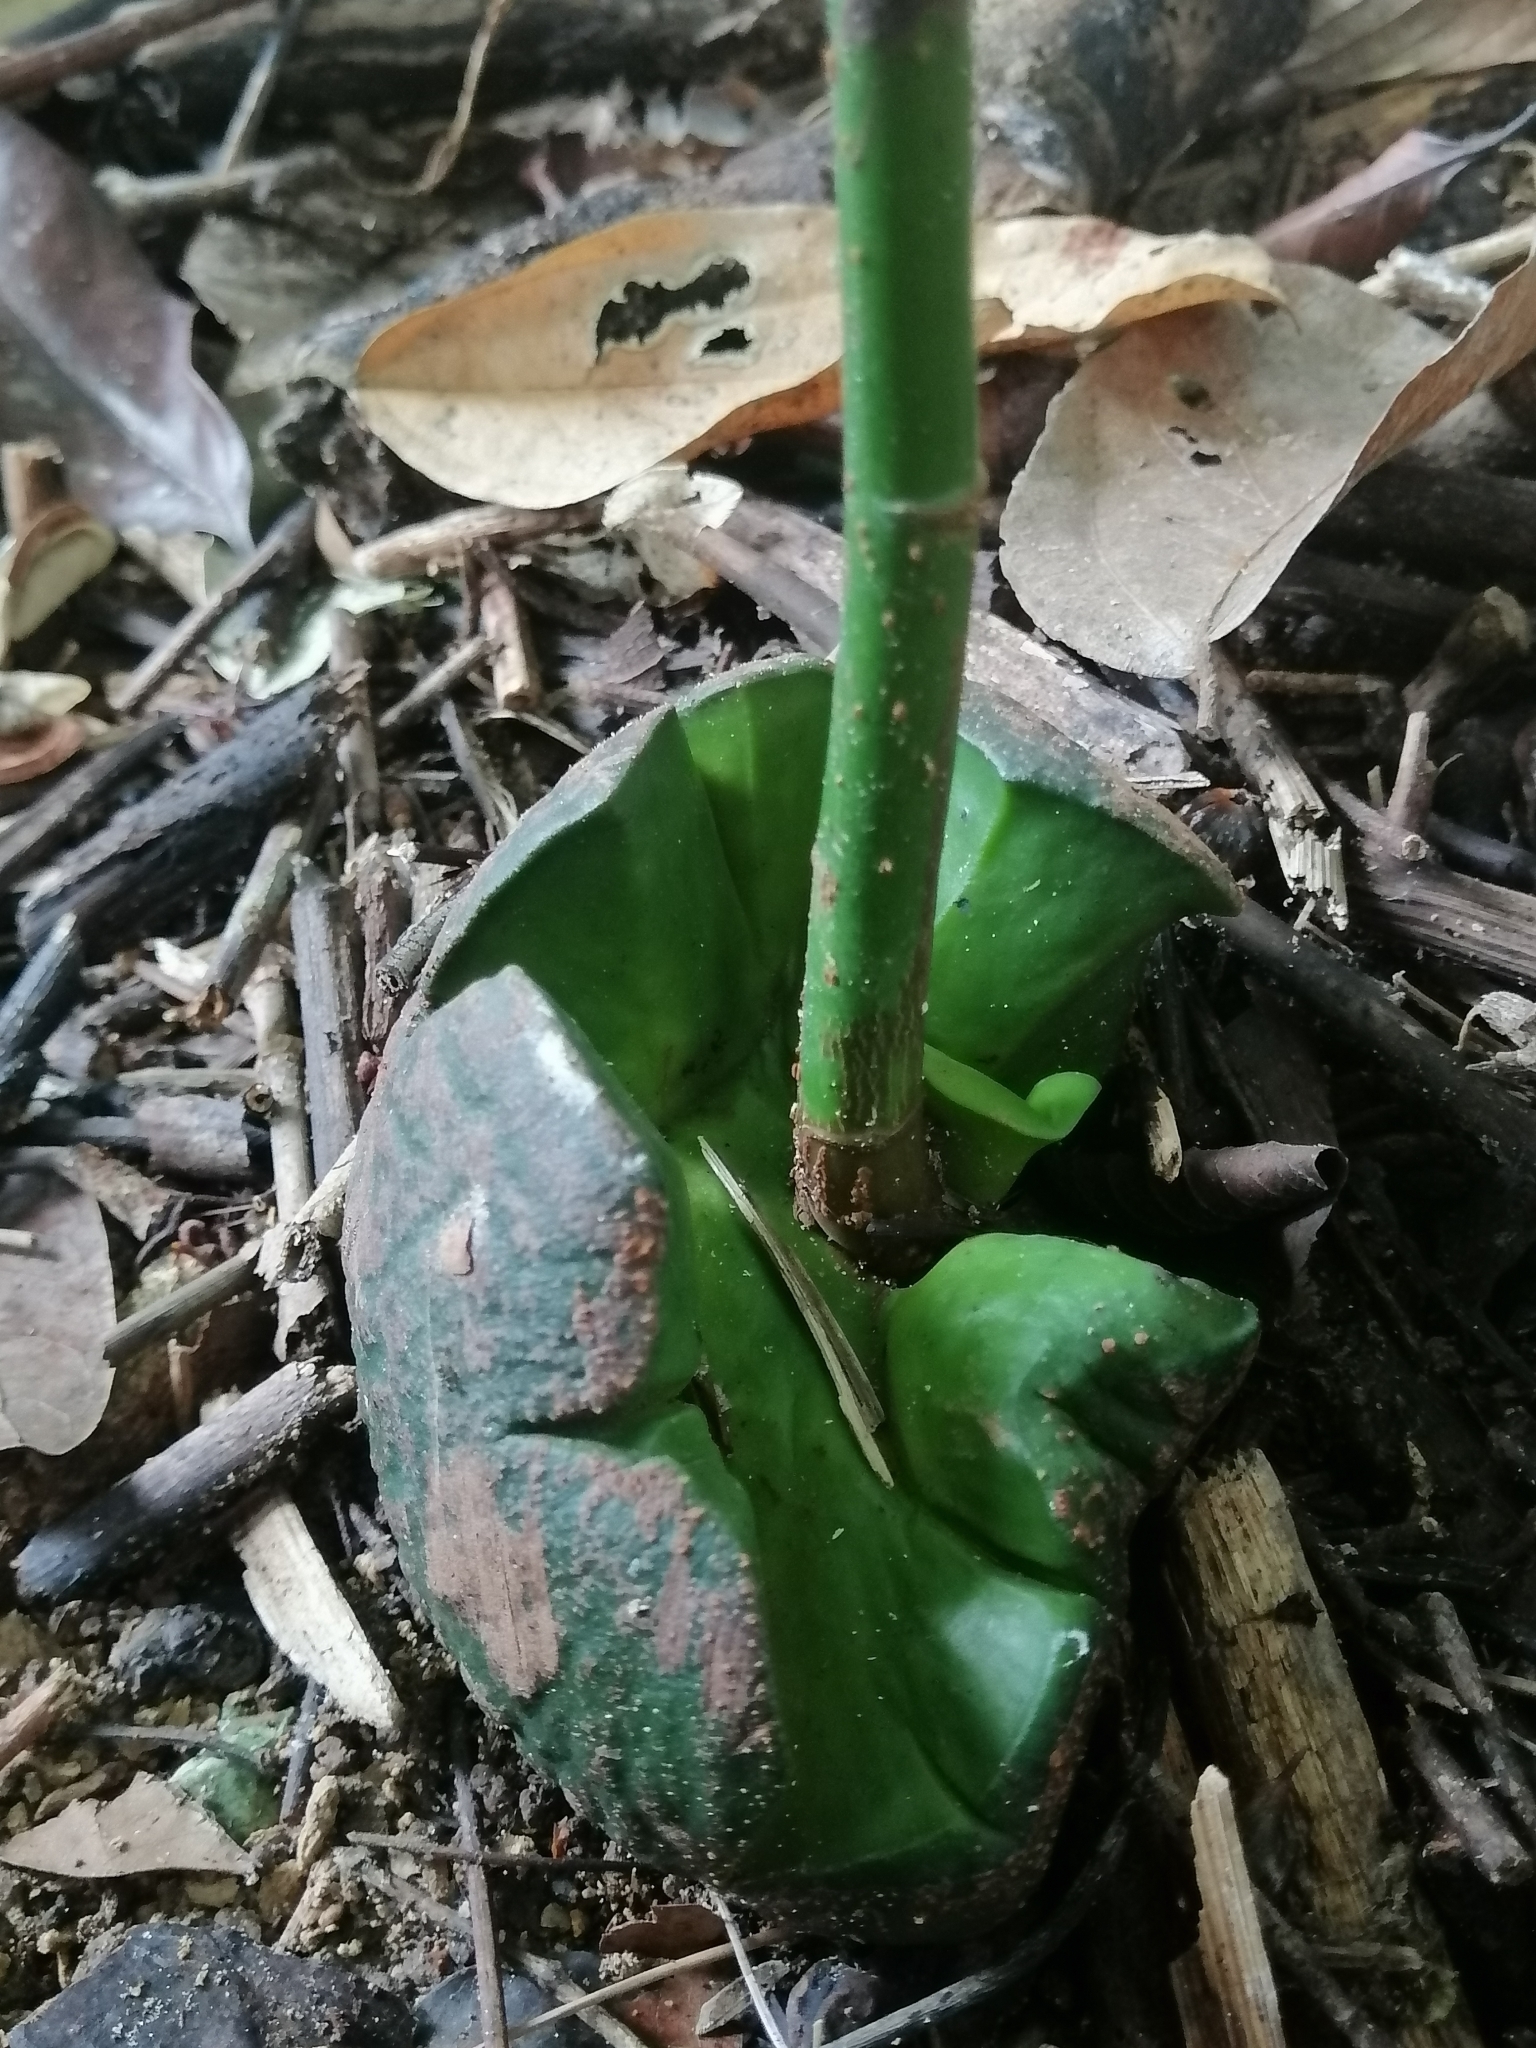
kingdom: Plantae
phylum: Tracheophyta
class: Magnoliopsida
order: Malvales
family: Malvaceae
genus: Pachira
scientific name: Pachira aquatica
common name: Provision-tree
